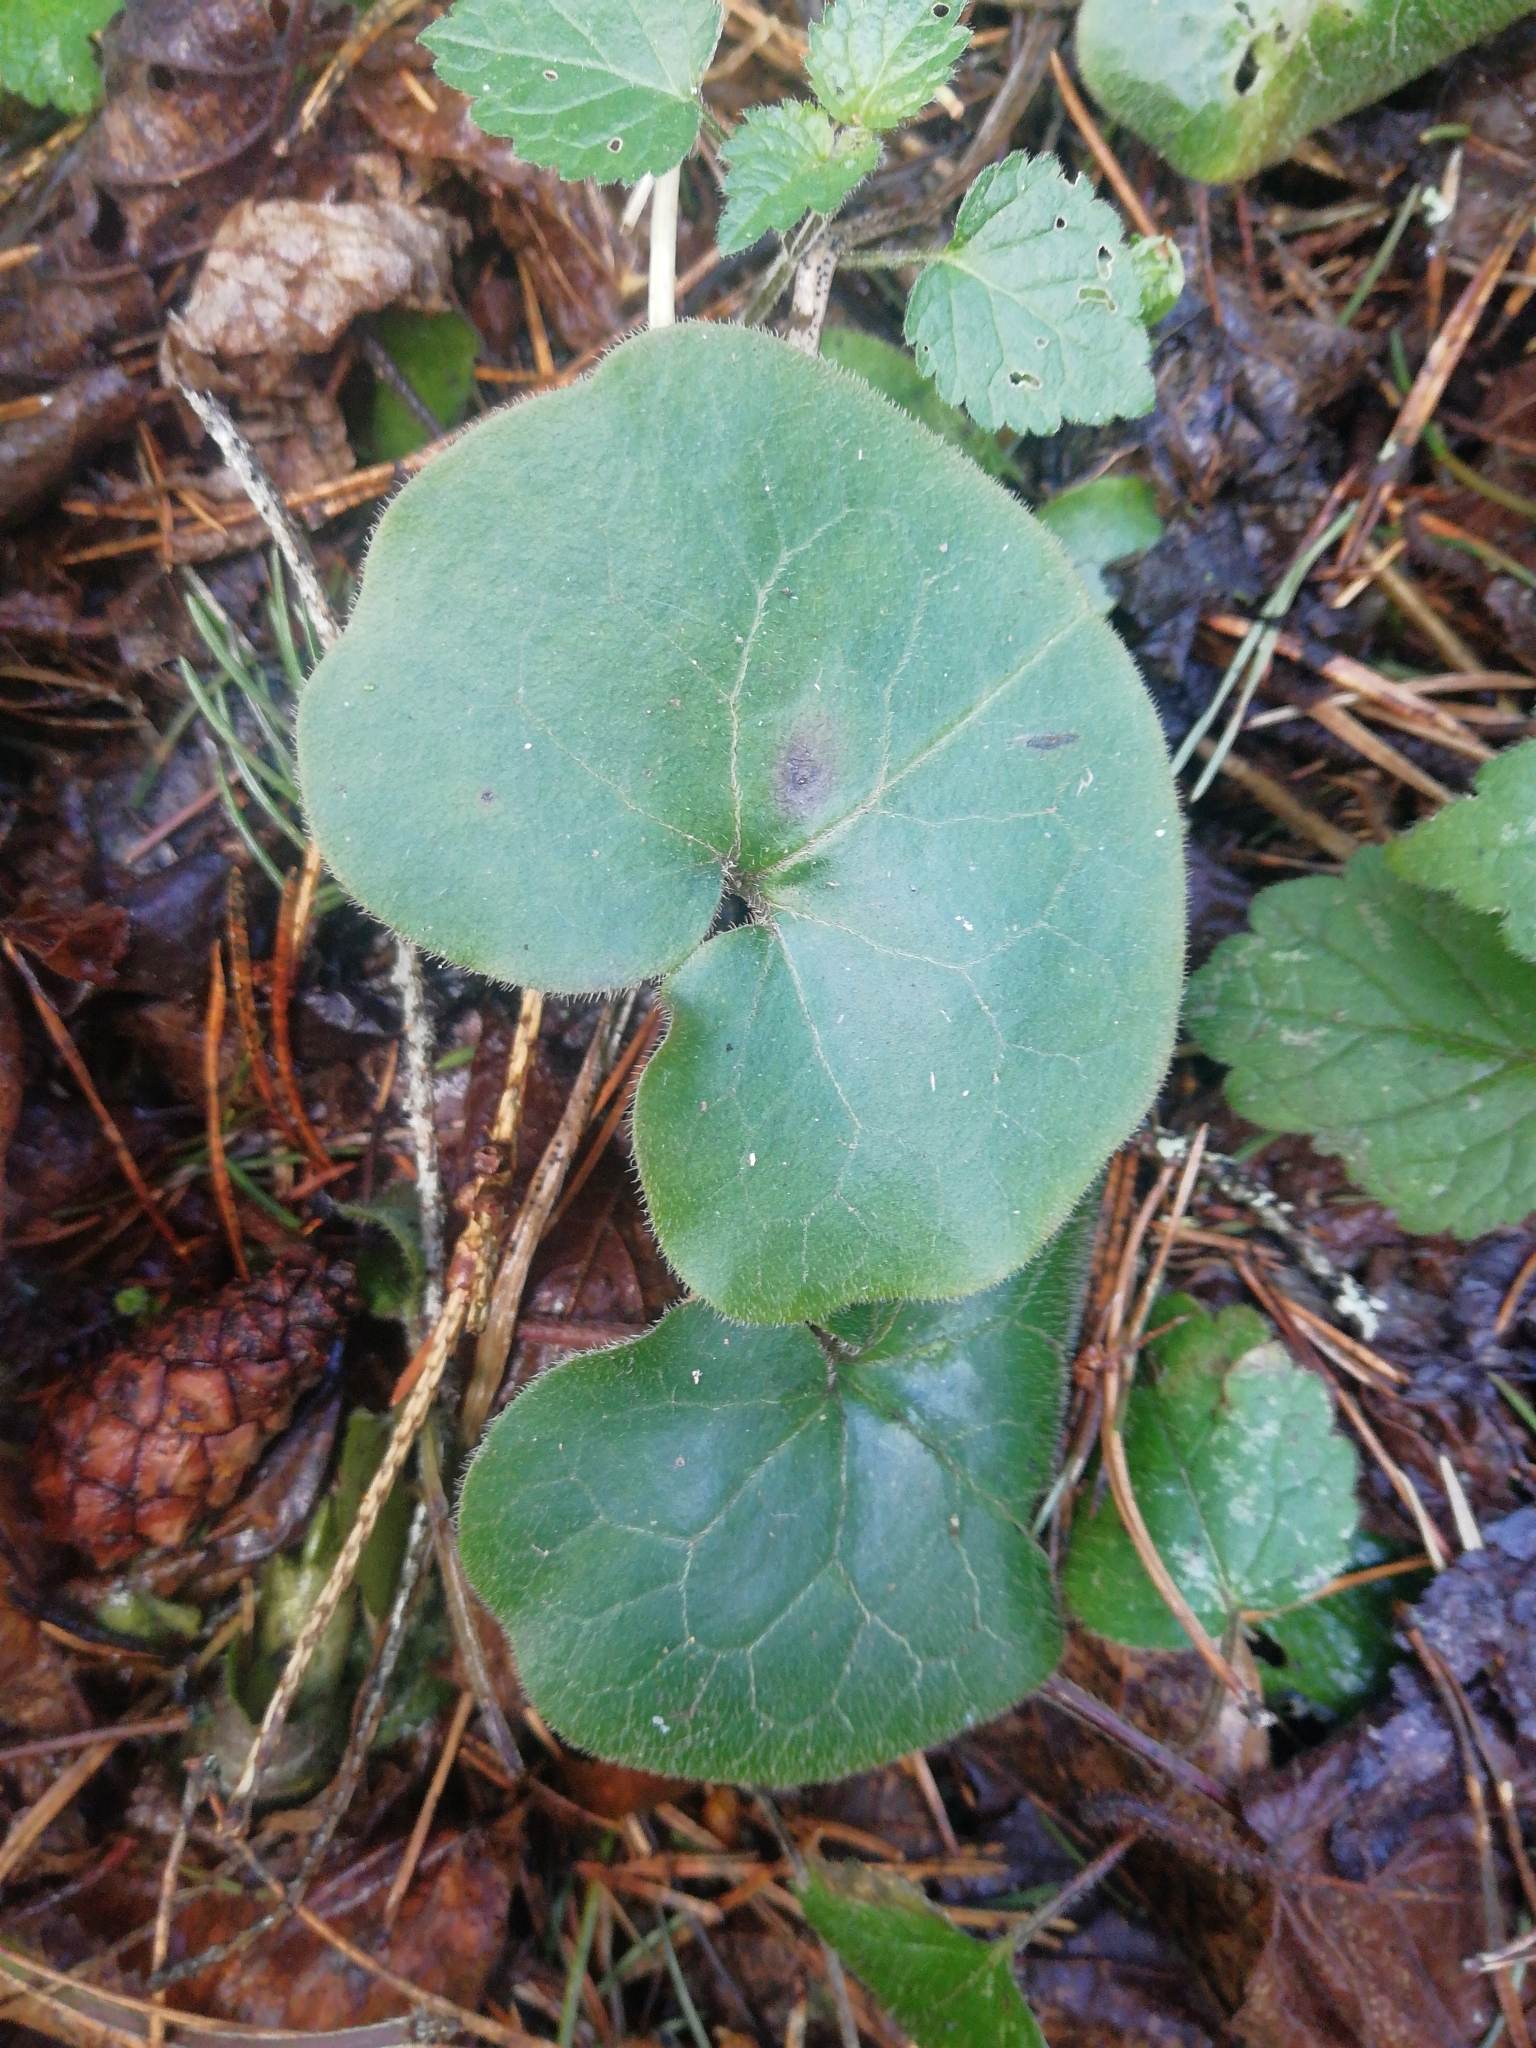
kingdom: Plantae
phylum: Tracheophyta
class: Magnoliopsida
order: Piperales
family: Aristolochiaceae
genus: Asarum
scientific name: Asarum europaeum
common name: Asarabacca
